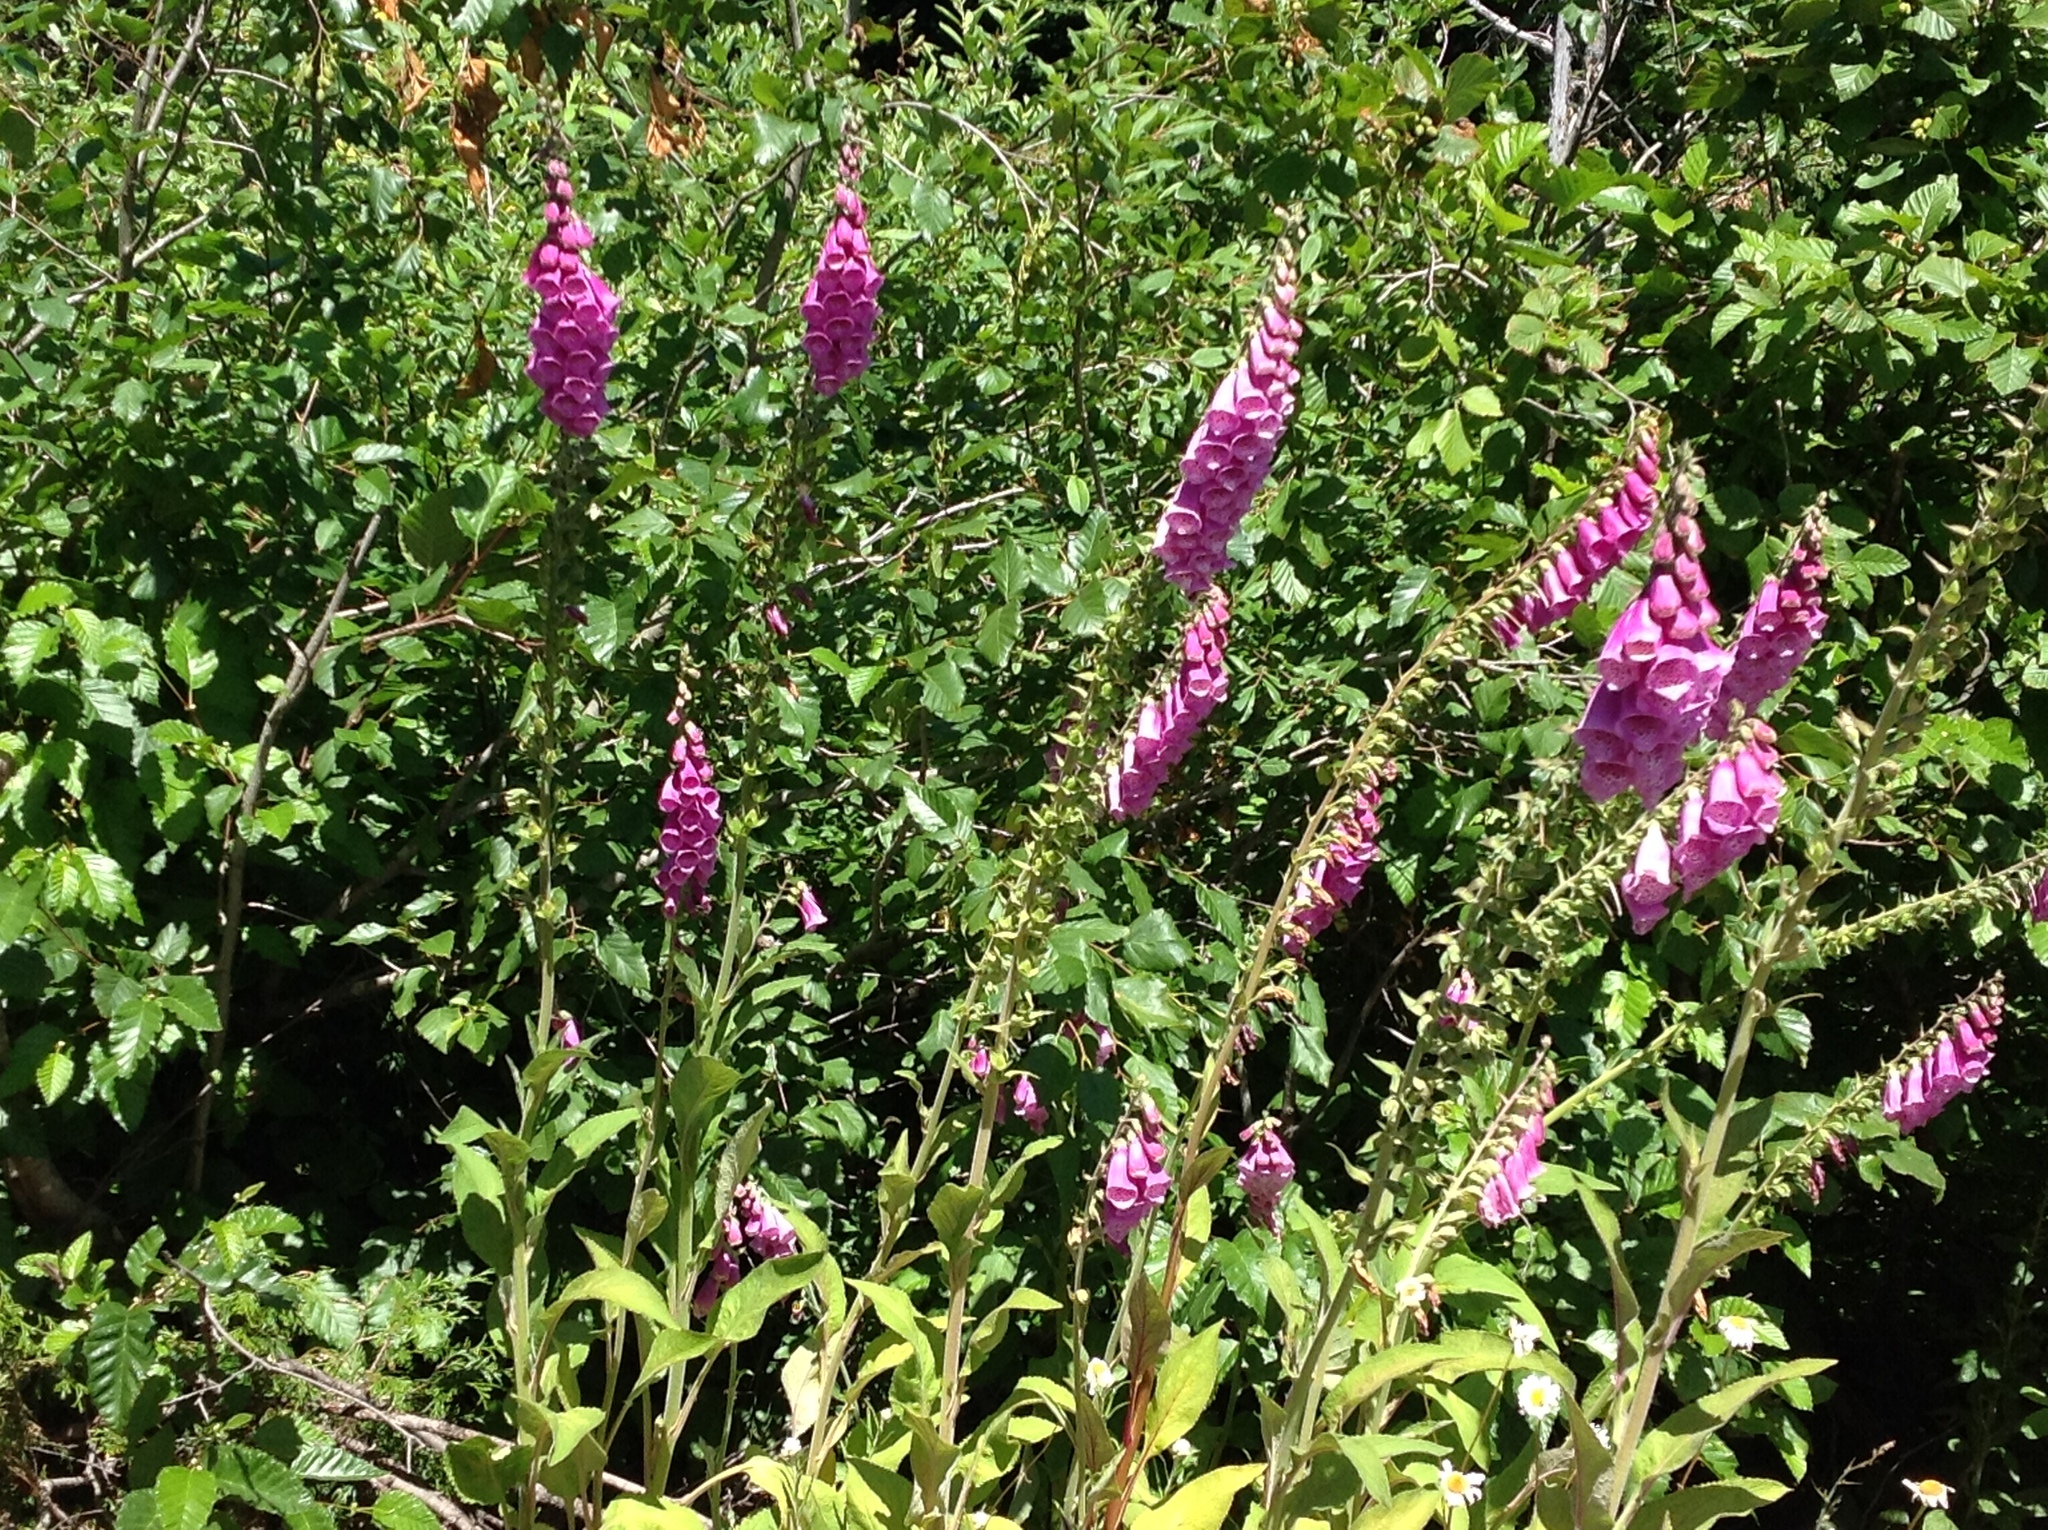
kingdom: Plantae
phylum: Tracheophyta
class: Magnoliopsida
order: Lamiales
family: Plantaginaceae
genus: Digitalis
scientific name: Digitalis purpurea
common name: Foxglove
